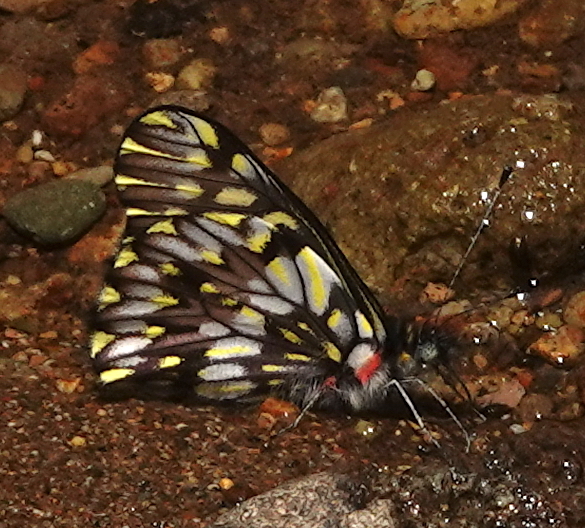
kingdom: Animalia
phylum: Arthropoda
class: Insecta
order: Lepidoptera
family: Pieridae
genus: Catasticta
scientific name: Catasticta seitzi
